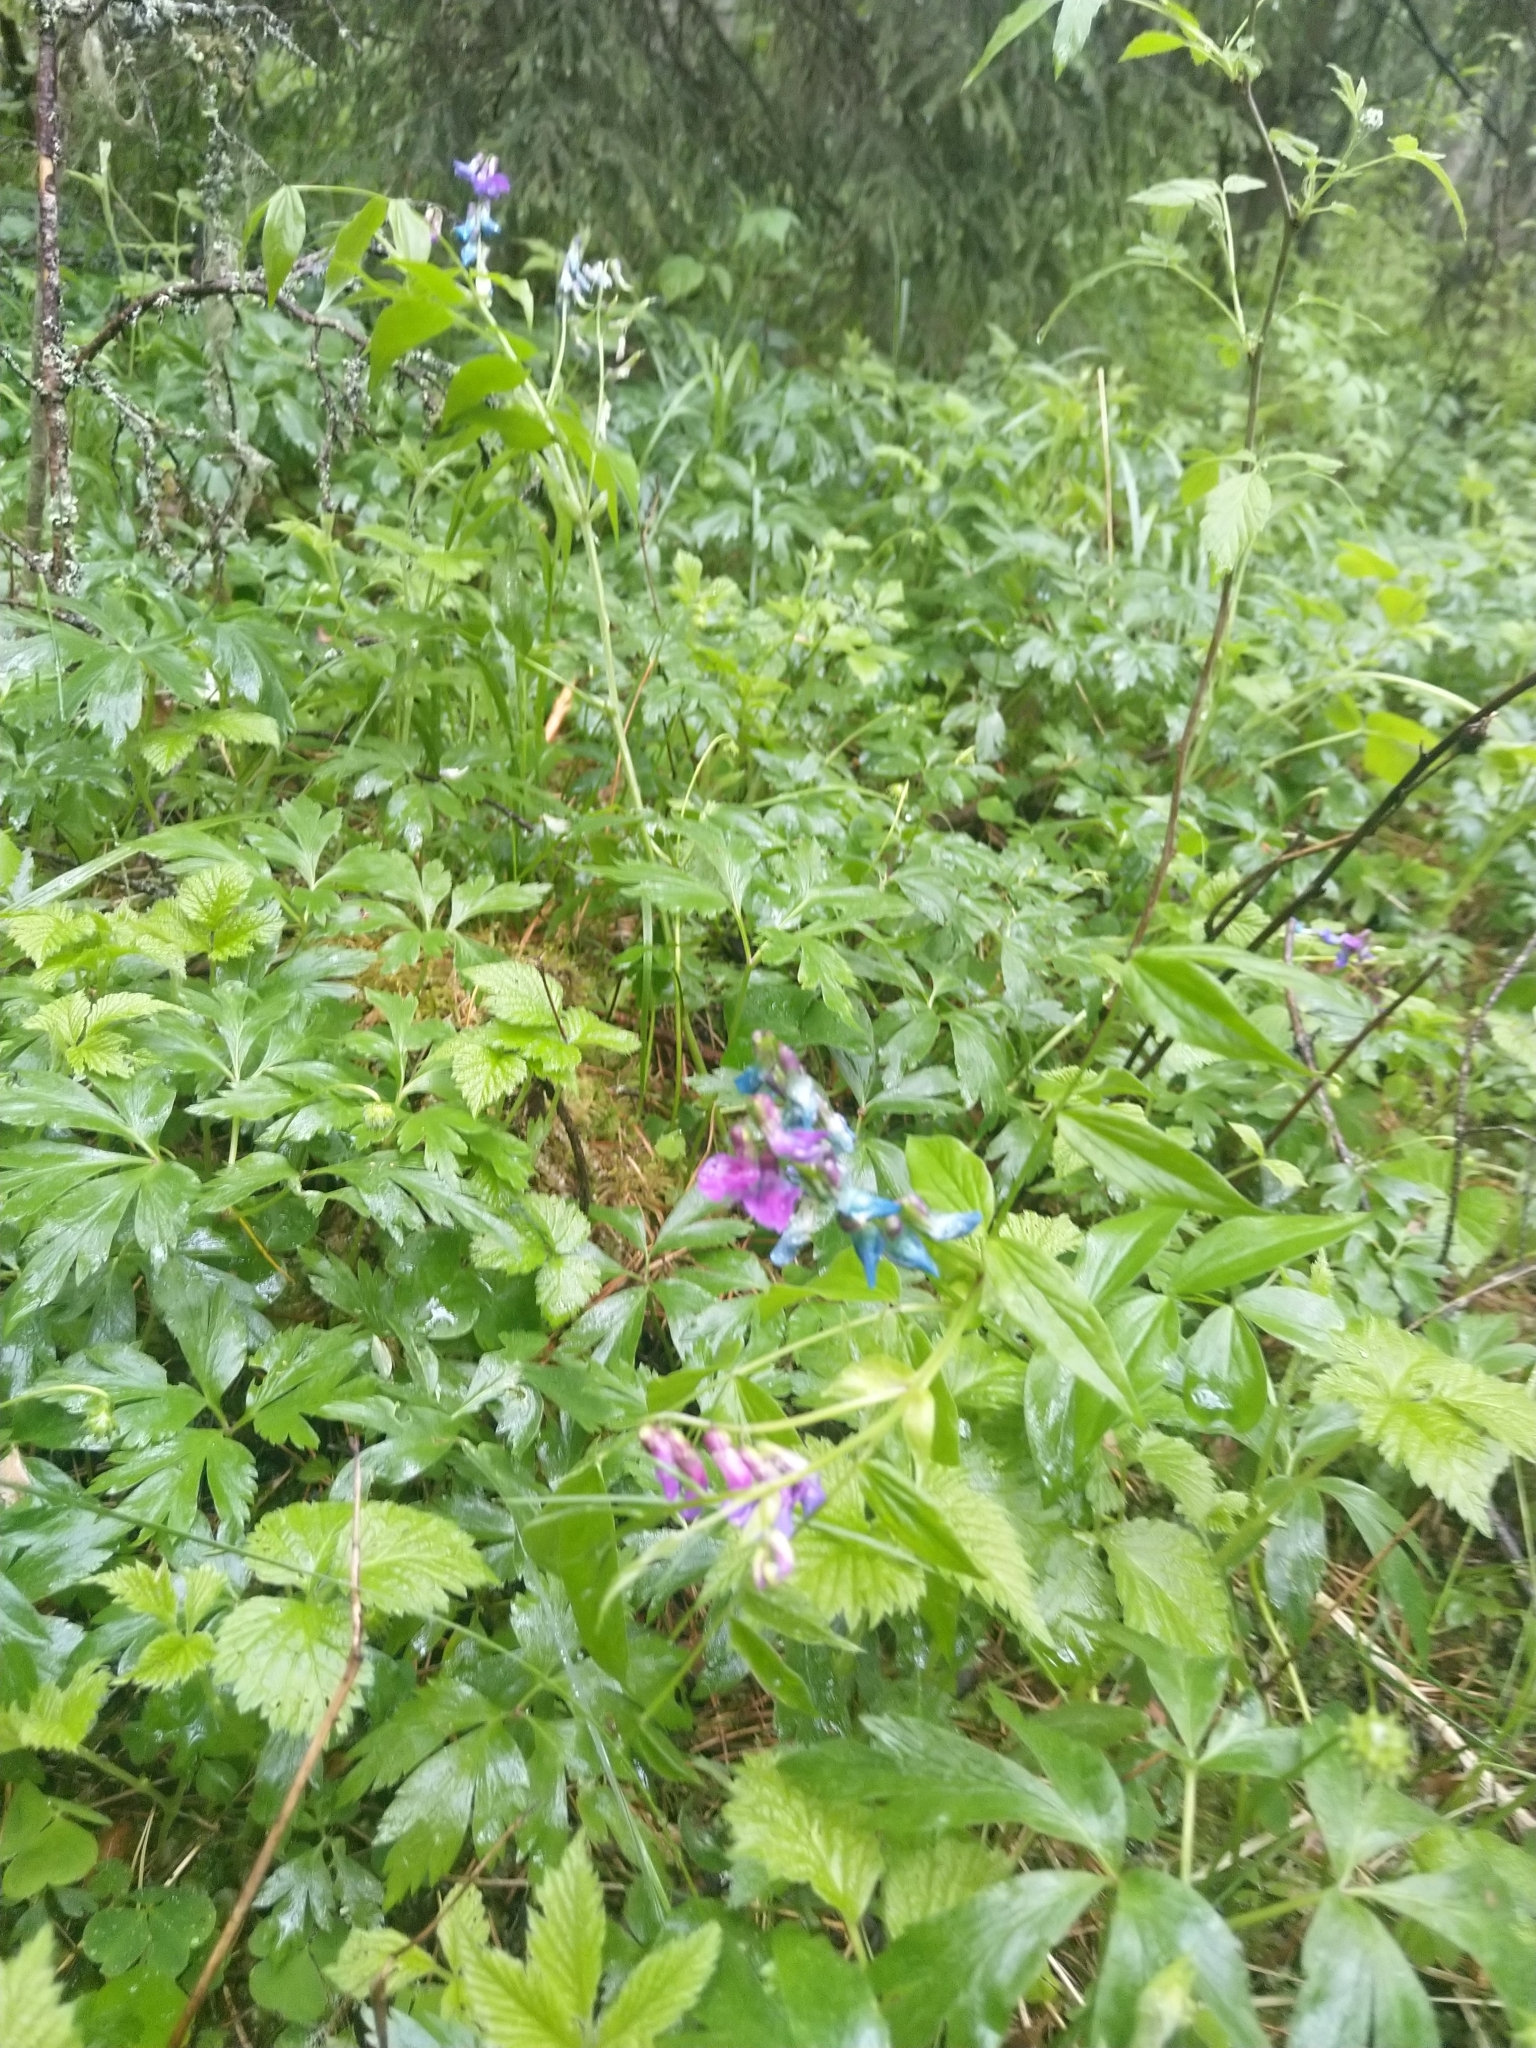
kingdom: Plantae
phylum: Tracheophyta
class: Magnoliopsida
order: Fabales
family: Fabaceae
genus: Lathyrus
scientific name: Lathyrus vernus
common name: Spring pea
